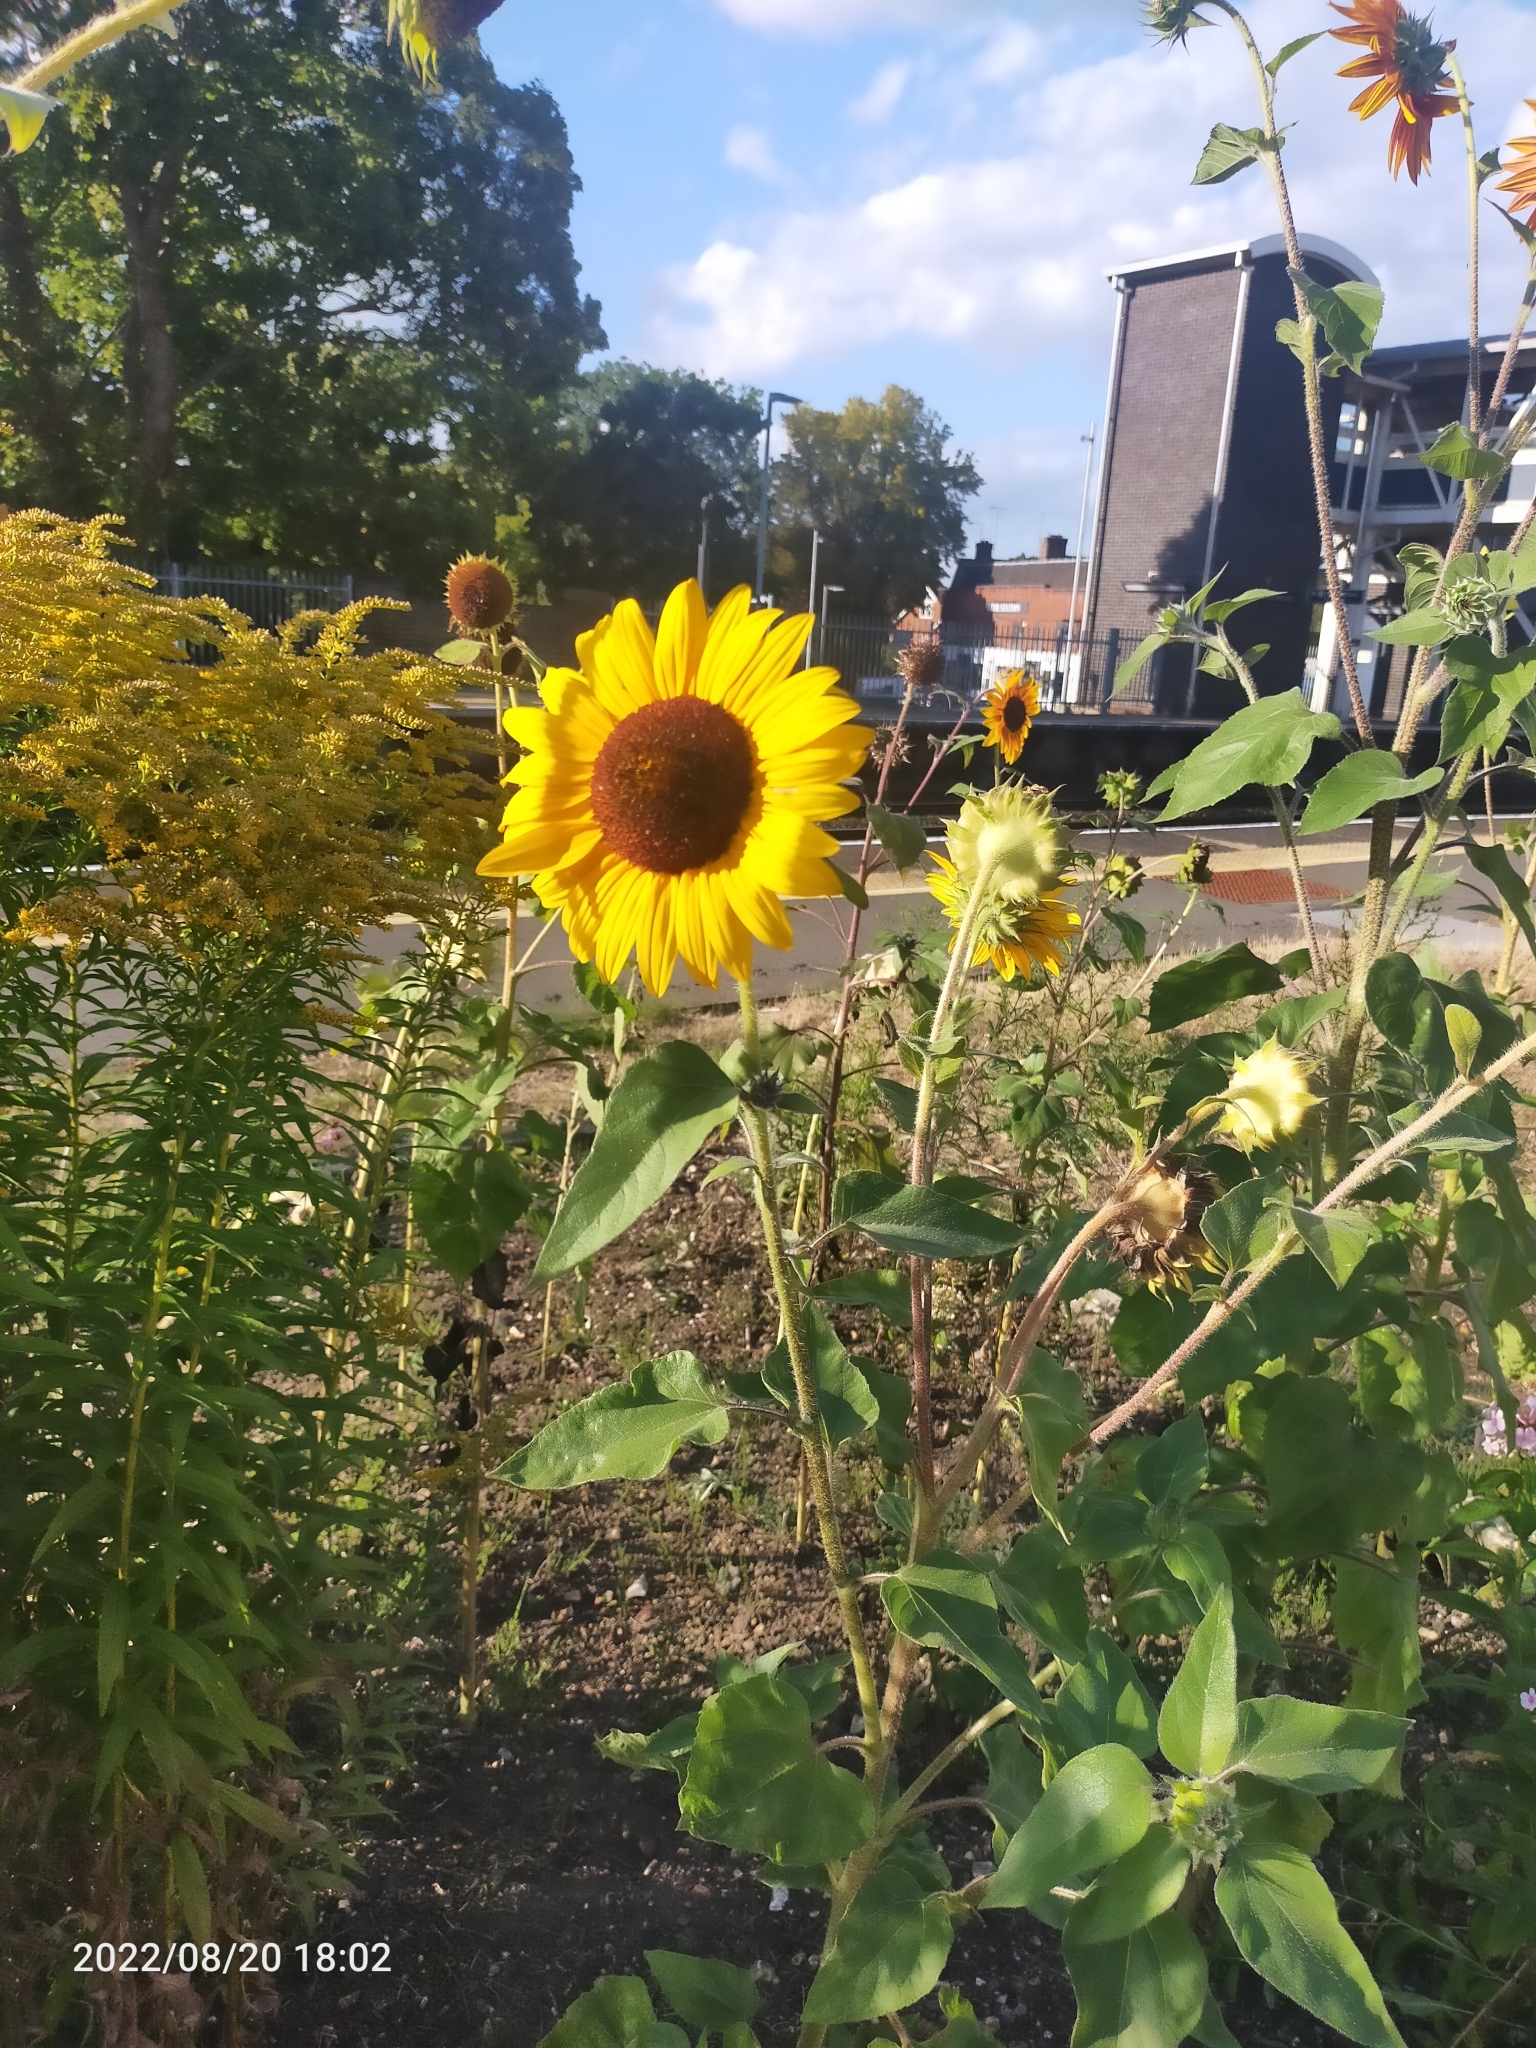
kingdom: Plantae
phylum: Tracheophyta
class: Magnoliopsida
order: Asterales
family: Asteraceae
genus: Helianthus
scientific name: Helianthus annuus
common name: Sunflower
